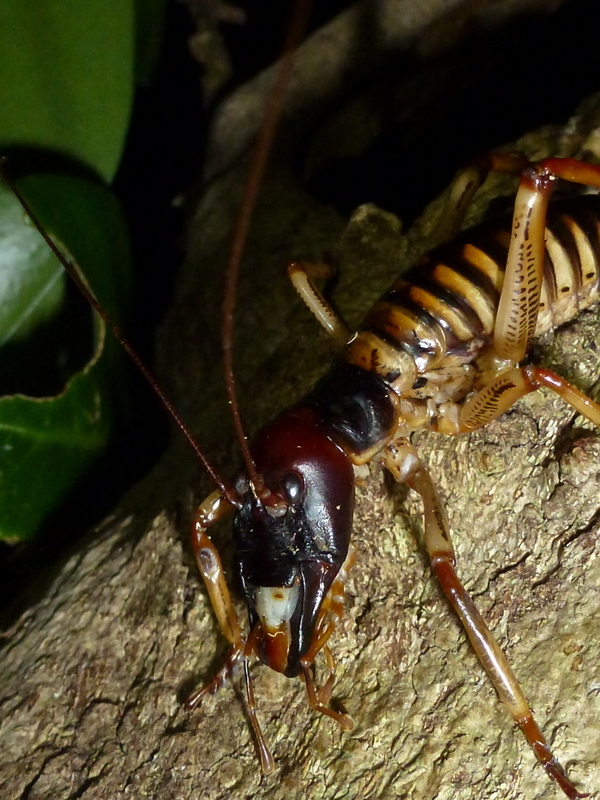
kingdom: Animalia
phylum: Arthropoda
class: Insecta
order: Orthoptera
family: Anostostomatidae
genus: Hemideina
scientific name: Hemideina crassidens
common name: Wellington tree weta
